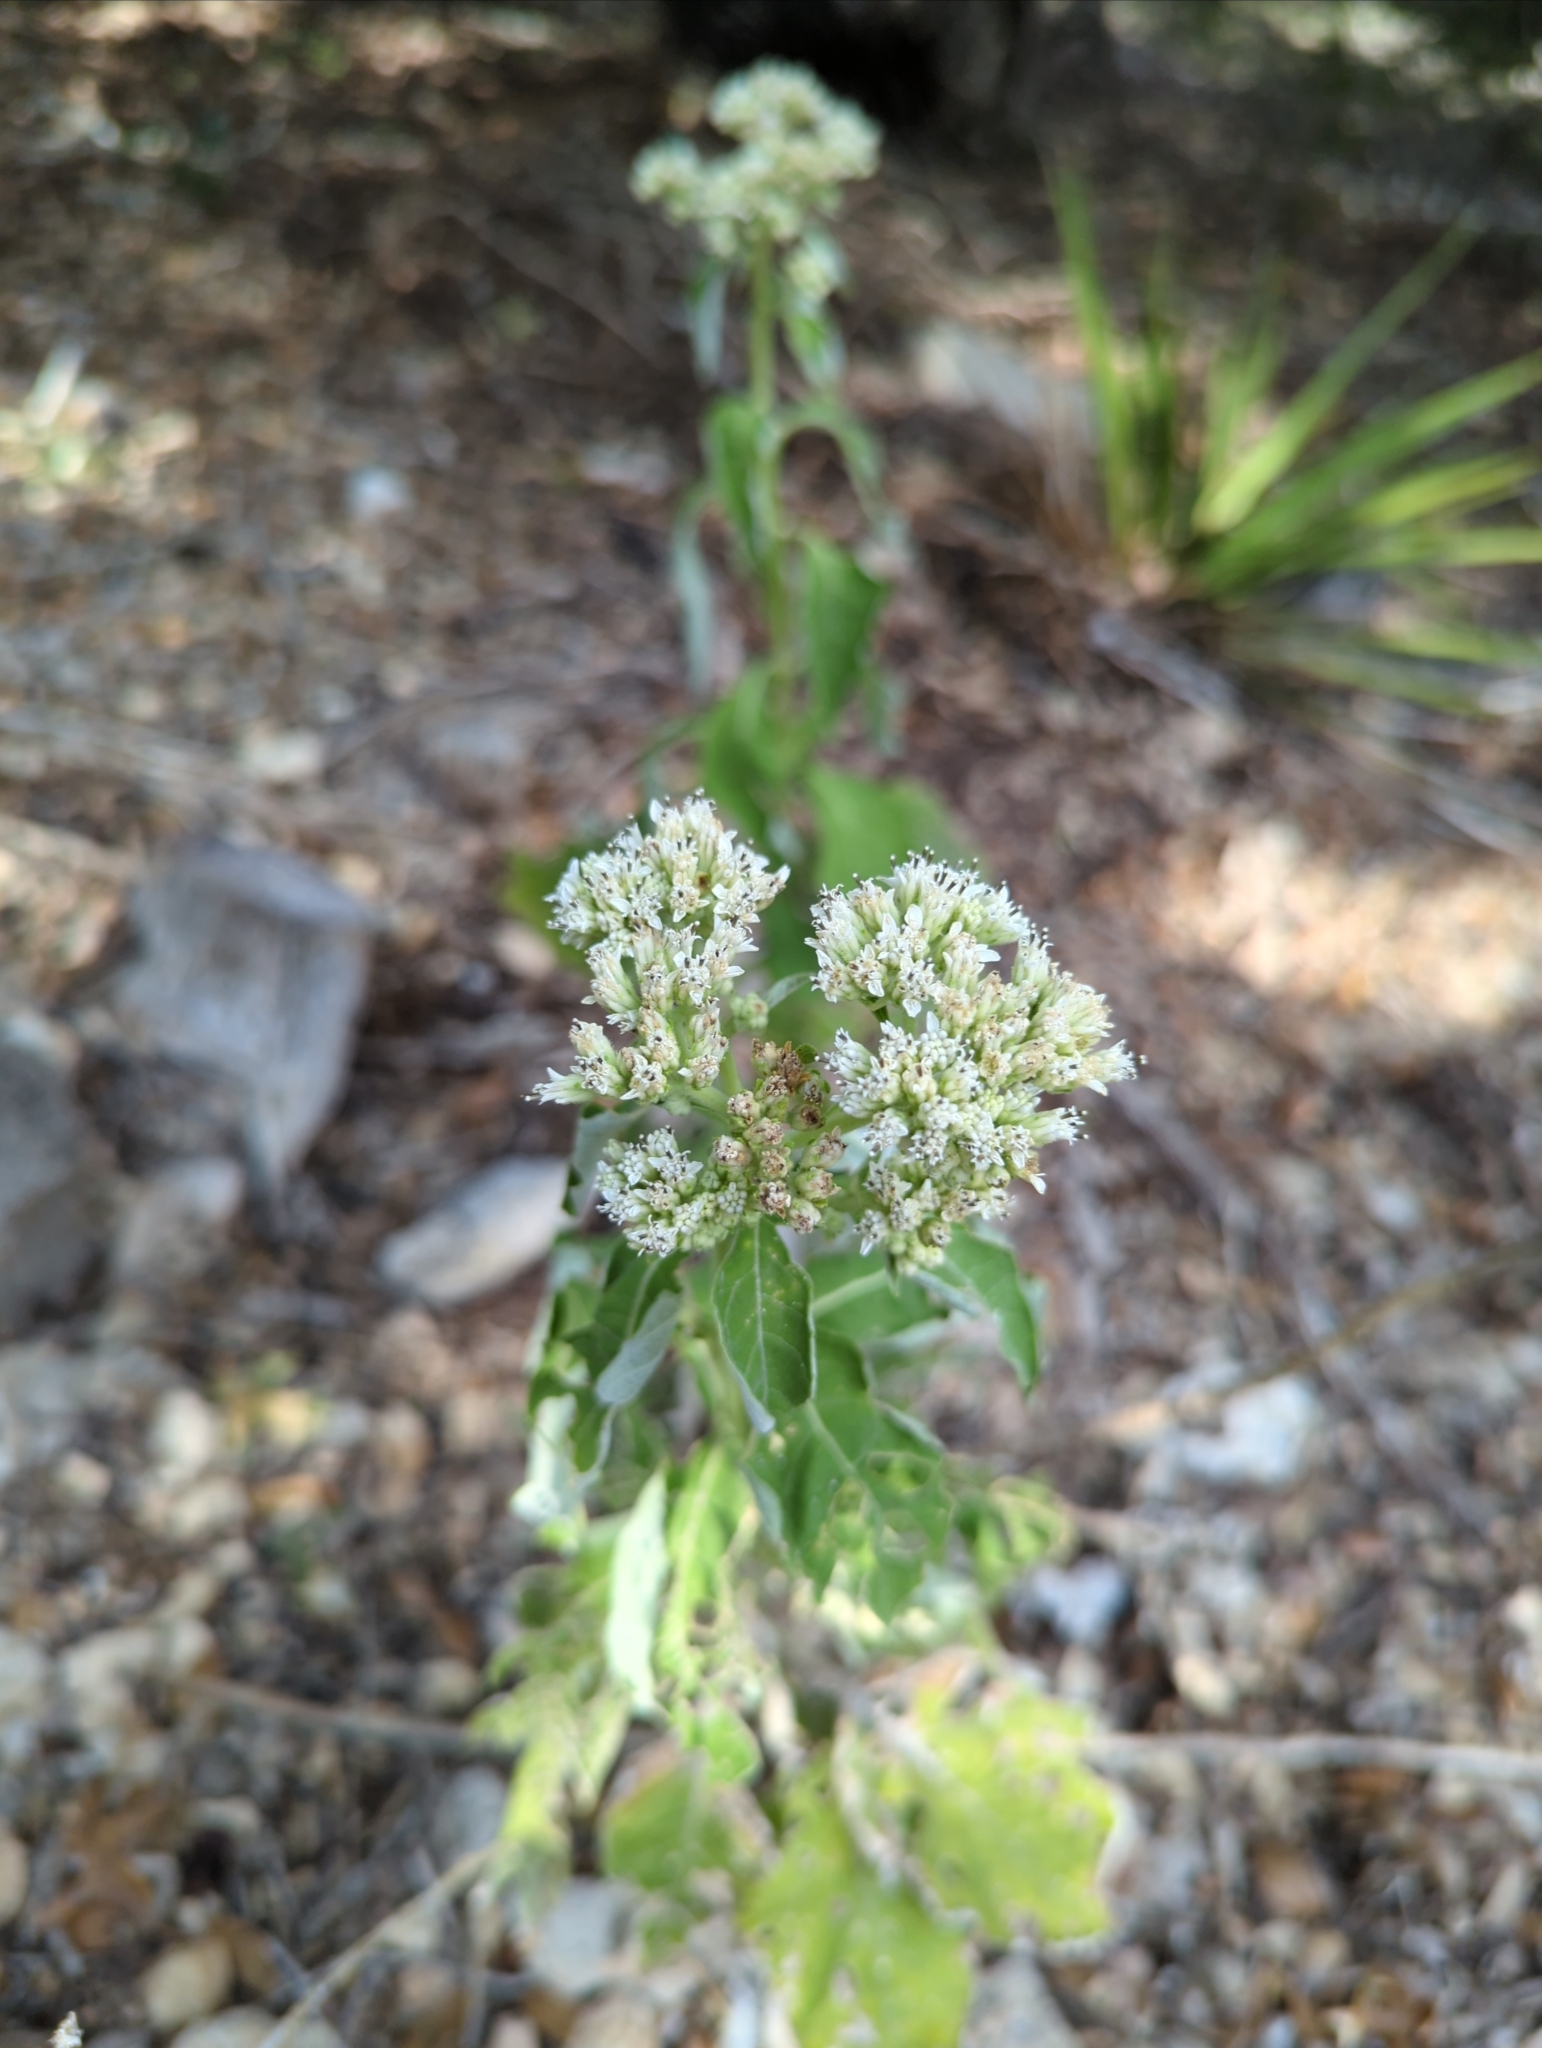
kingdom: Plantae
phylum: Tracheophyta
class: Magnoliopsida
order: Asterales
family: Asteraceae
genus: Verbesina
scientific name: Verbesina virginica
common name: Frostweed
